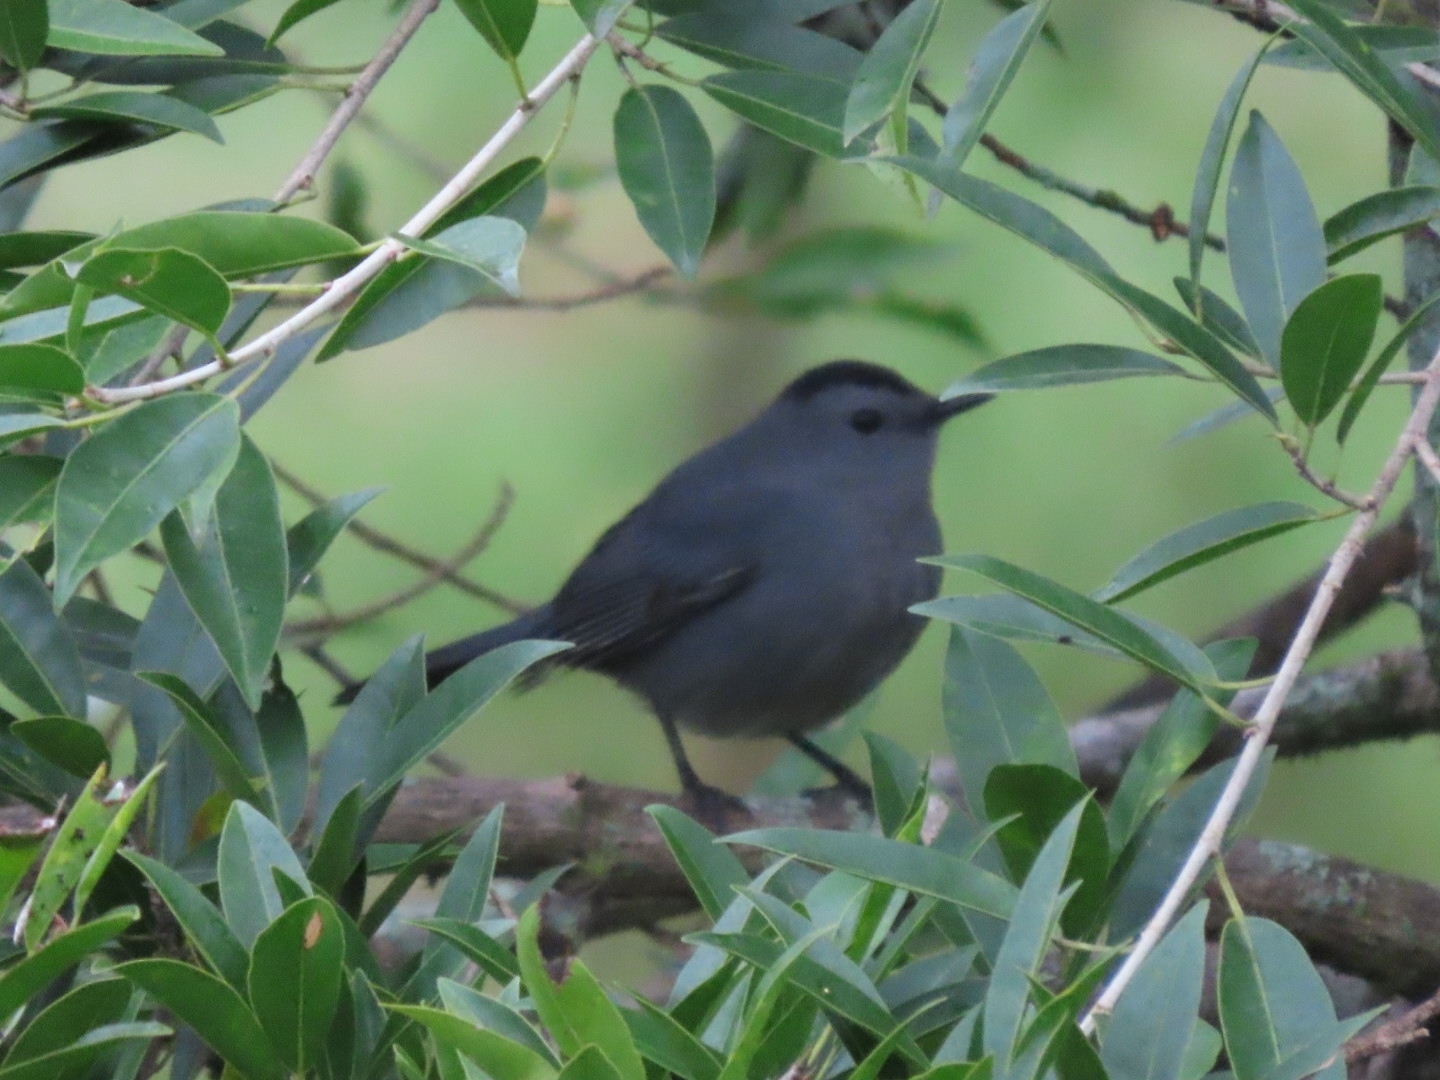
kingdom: Animalia
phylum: Chordata
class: Aves
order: Passeriformes
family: Mimidae
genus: Dumetella
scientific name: Dumetella carolinensis
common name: Gray catbird
